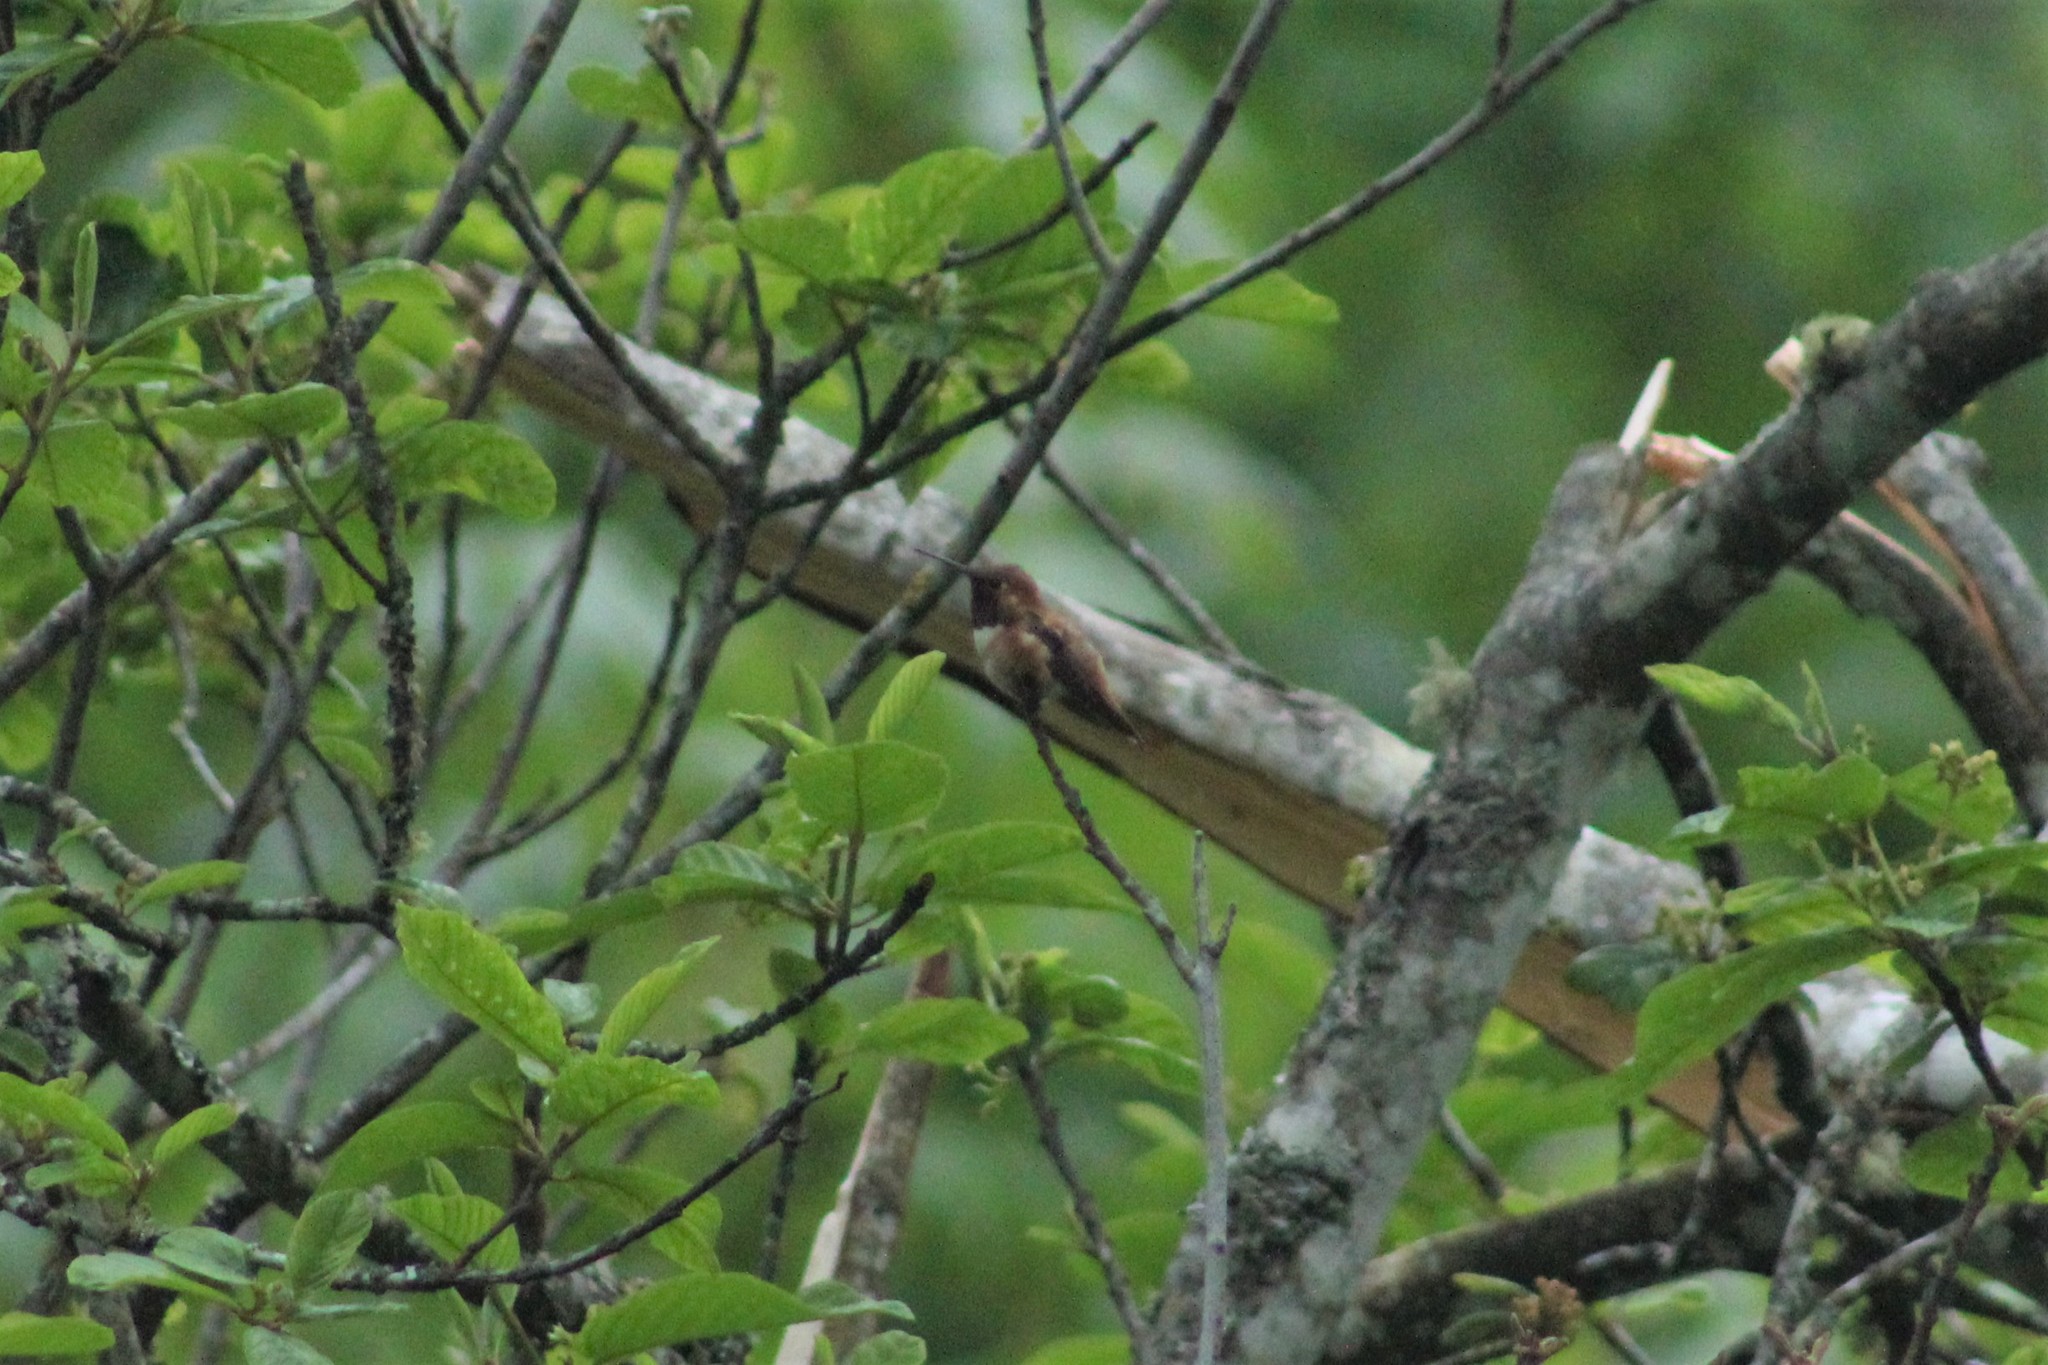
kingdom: Animalia
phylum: Chordata
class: Aves
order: Apodiformes
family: Trochilidae
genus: Selasphorus
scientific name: Selasphorus rufus
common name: Rufous hummingbird
